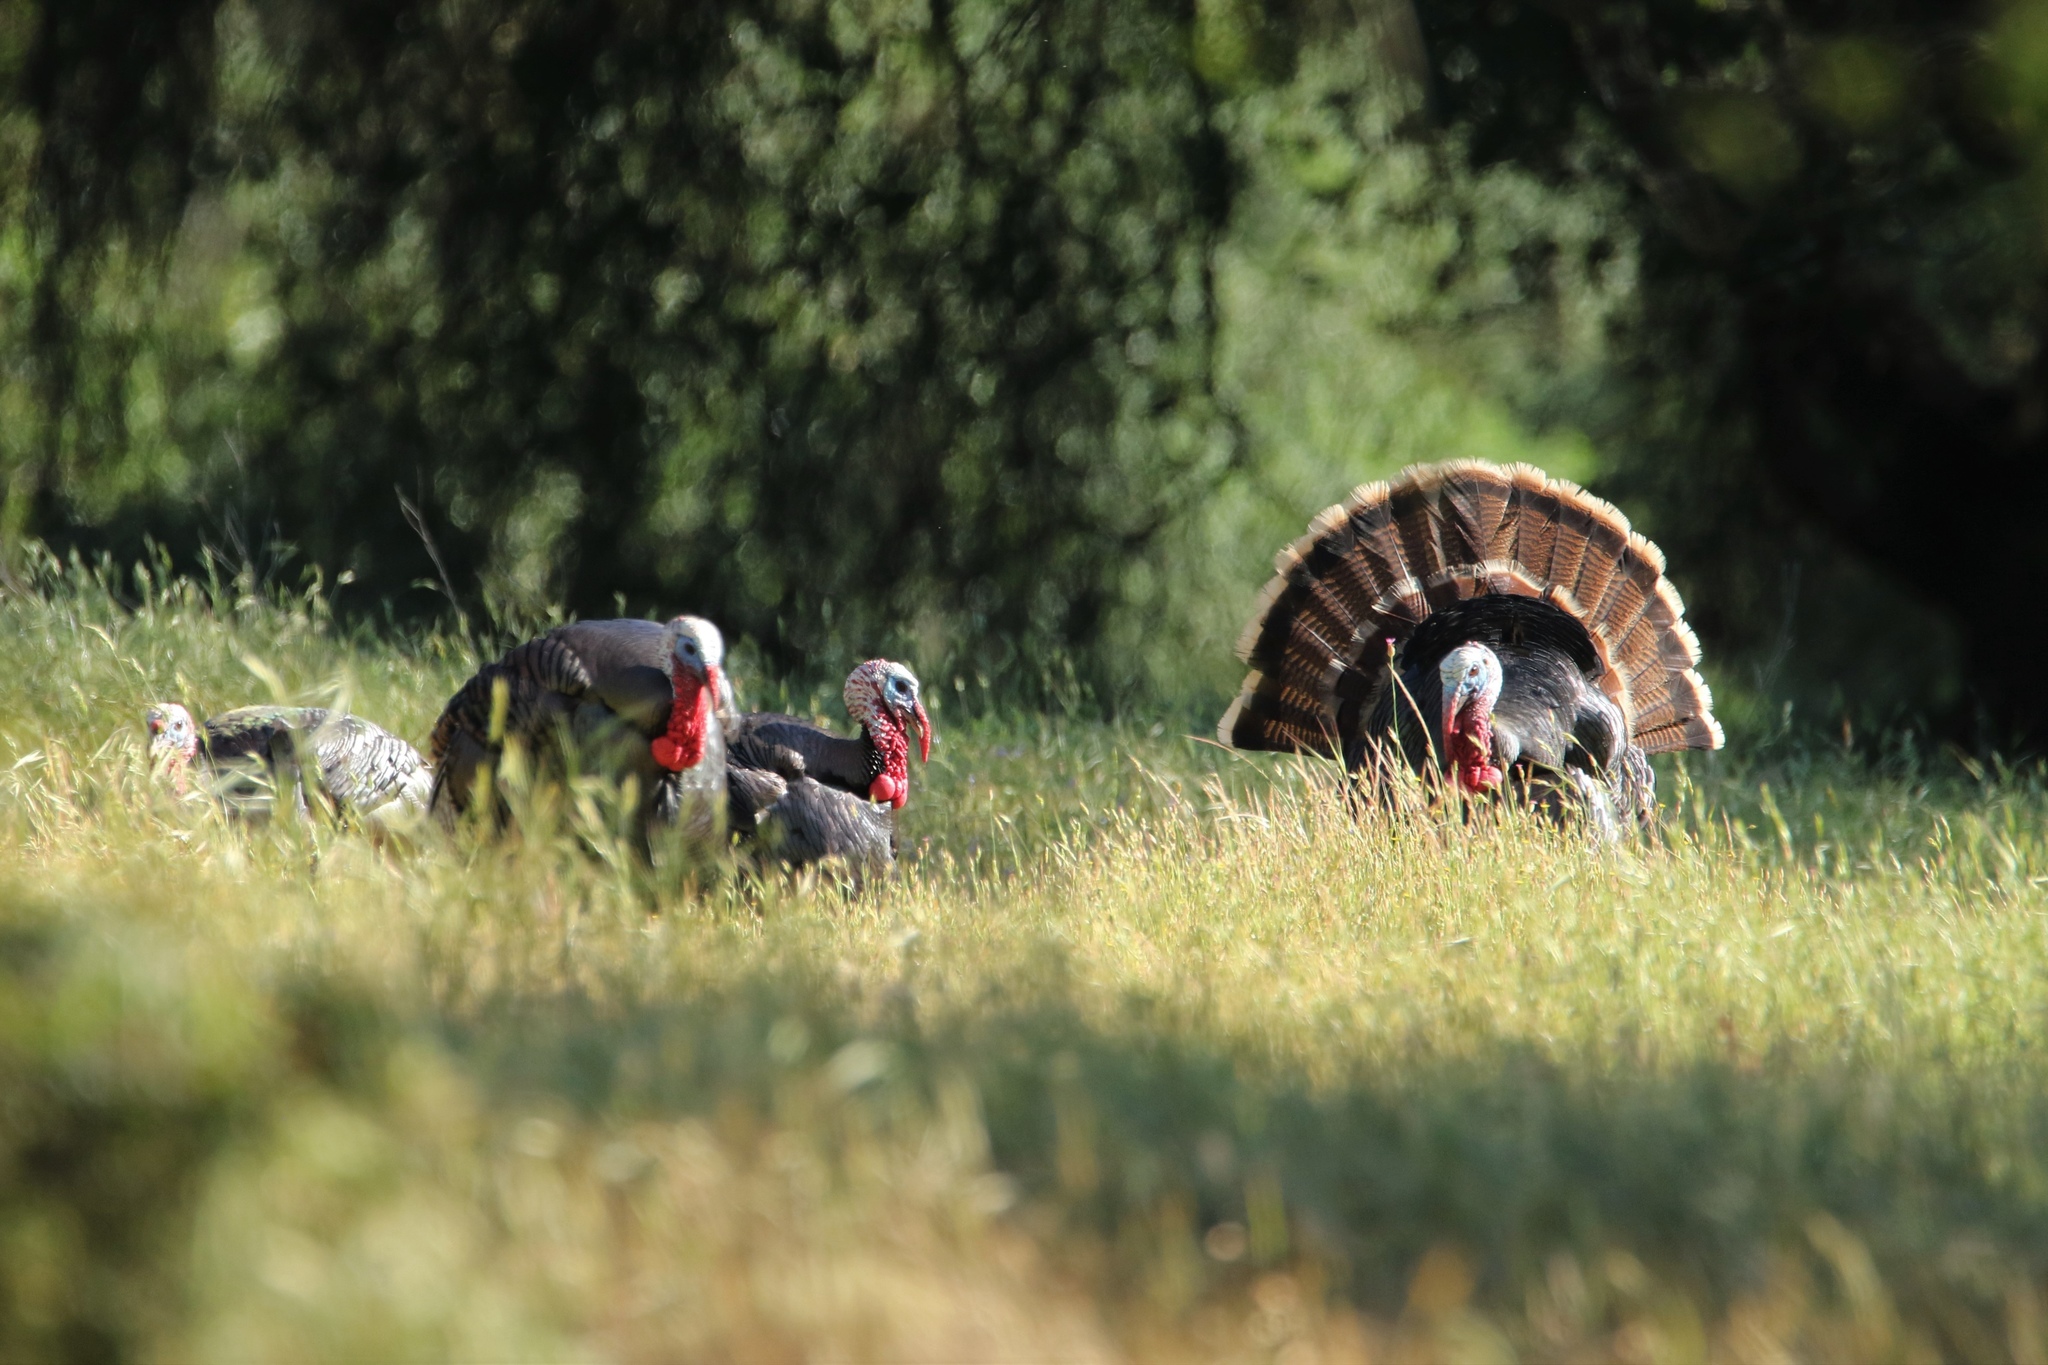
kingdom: Animalia
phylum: Chordata
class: Aves
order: Galliformes
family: Phasianidae
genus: Meleagris
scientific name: Meleagris gallopavo
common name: Wild turkey
